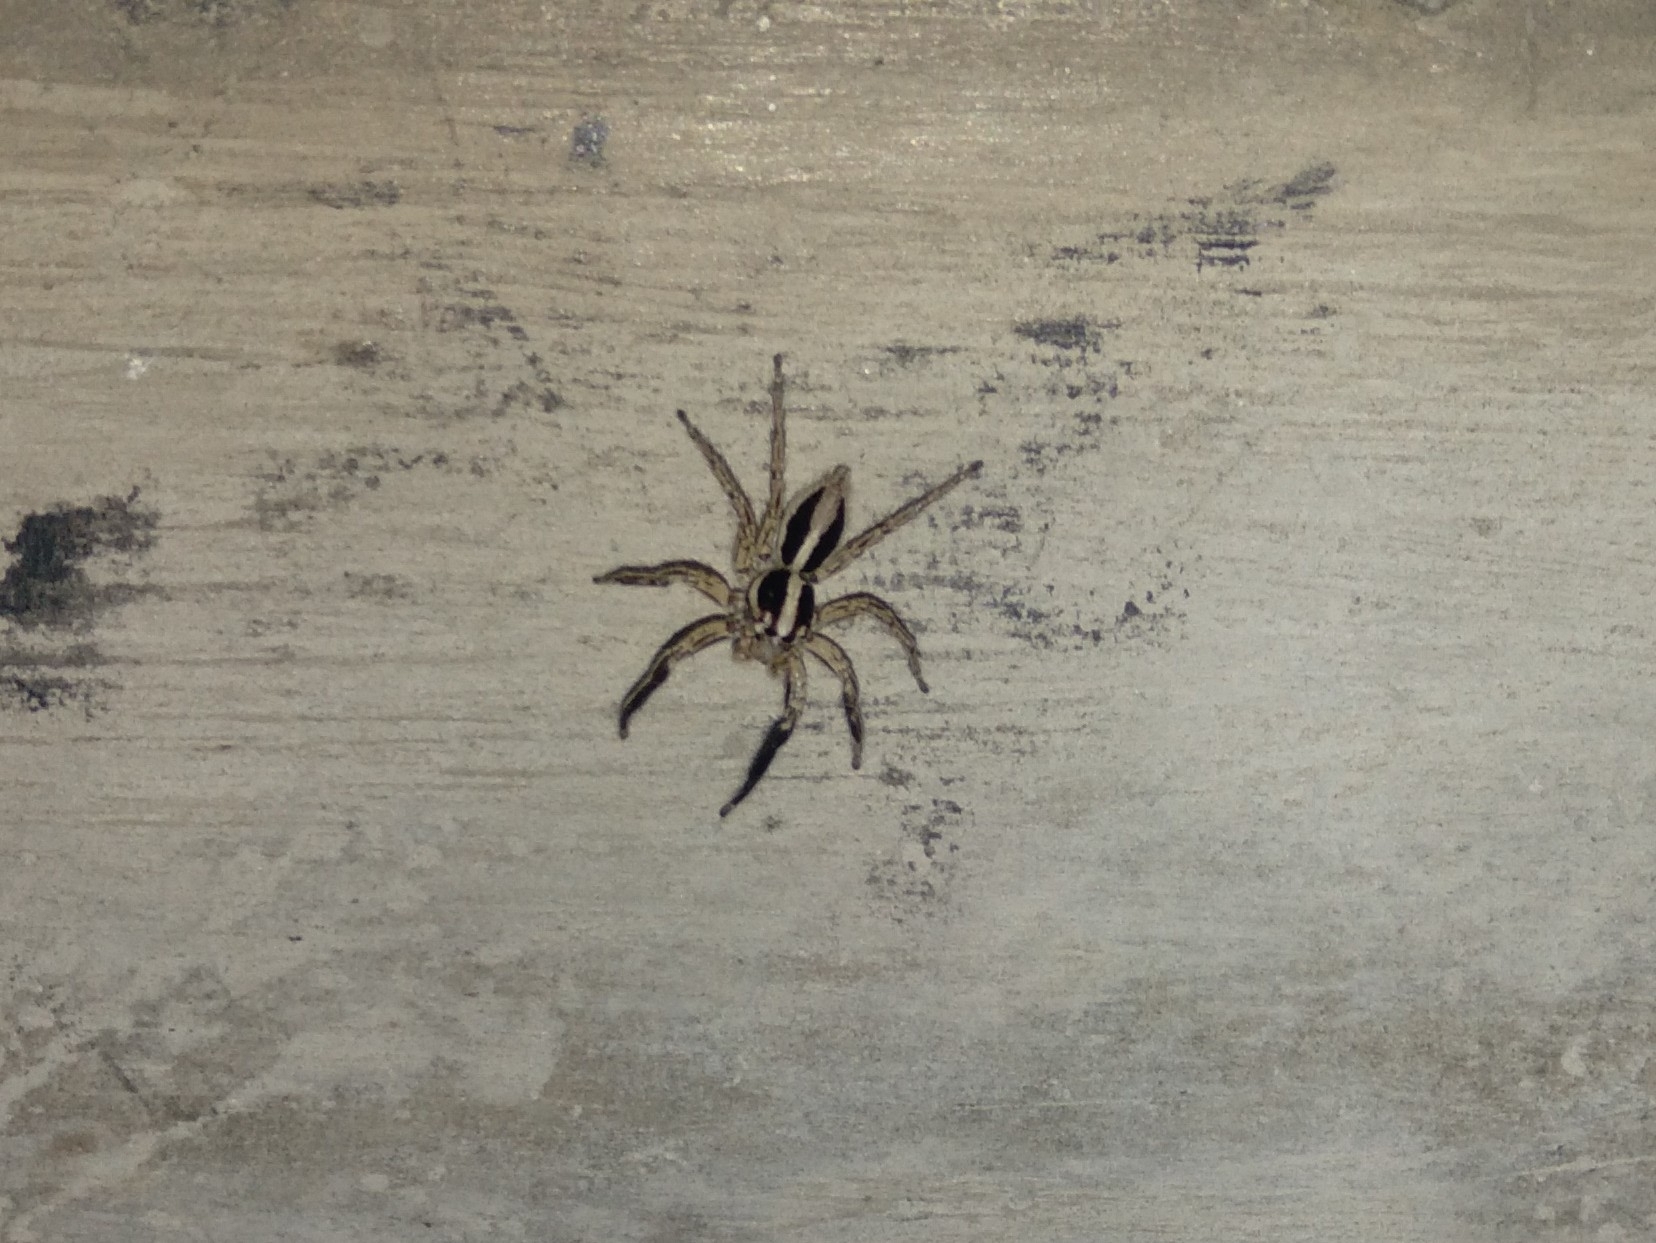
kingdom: Animalia
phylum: Arthropoda
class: Arachnida
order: Araneae
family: Salticidae
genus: Plexippus
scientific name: Plexippus paykulli
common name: Pantropical jumper
